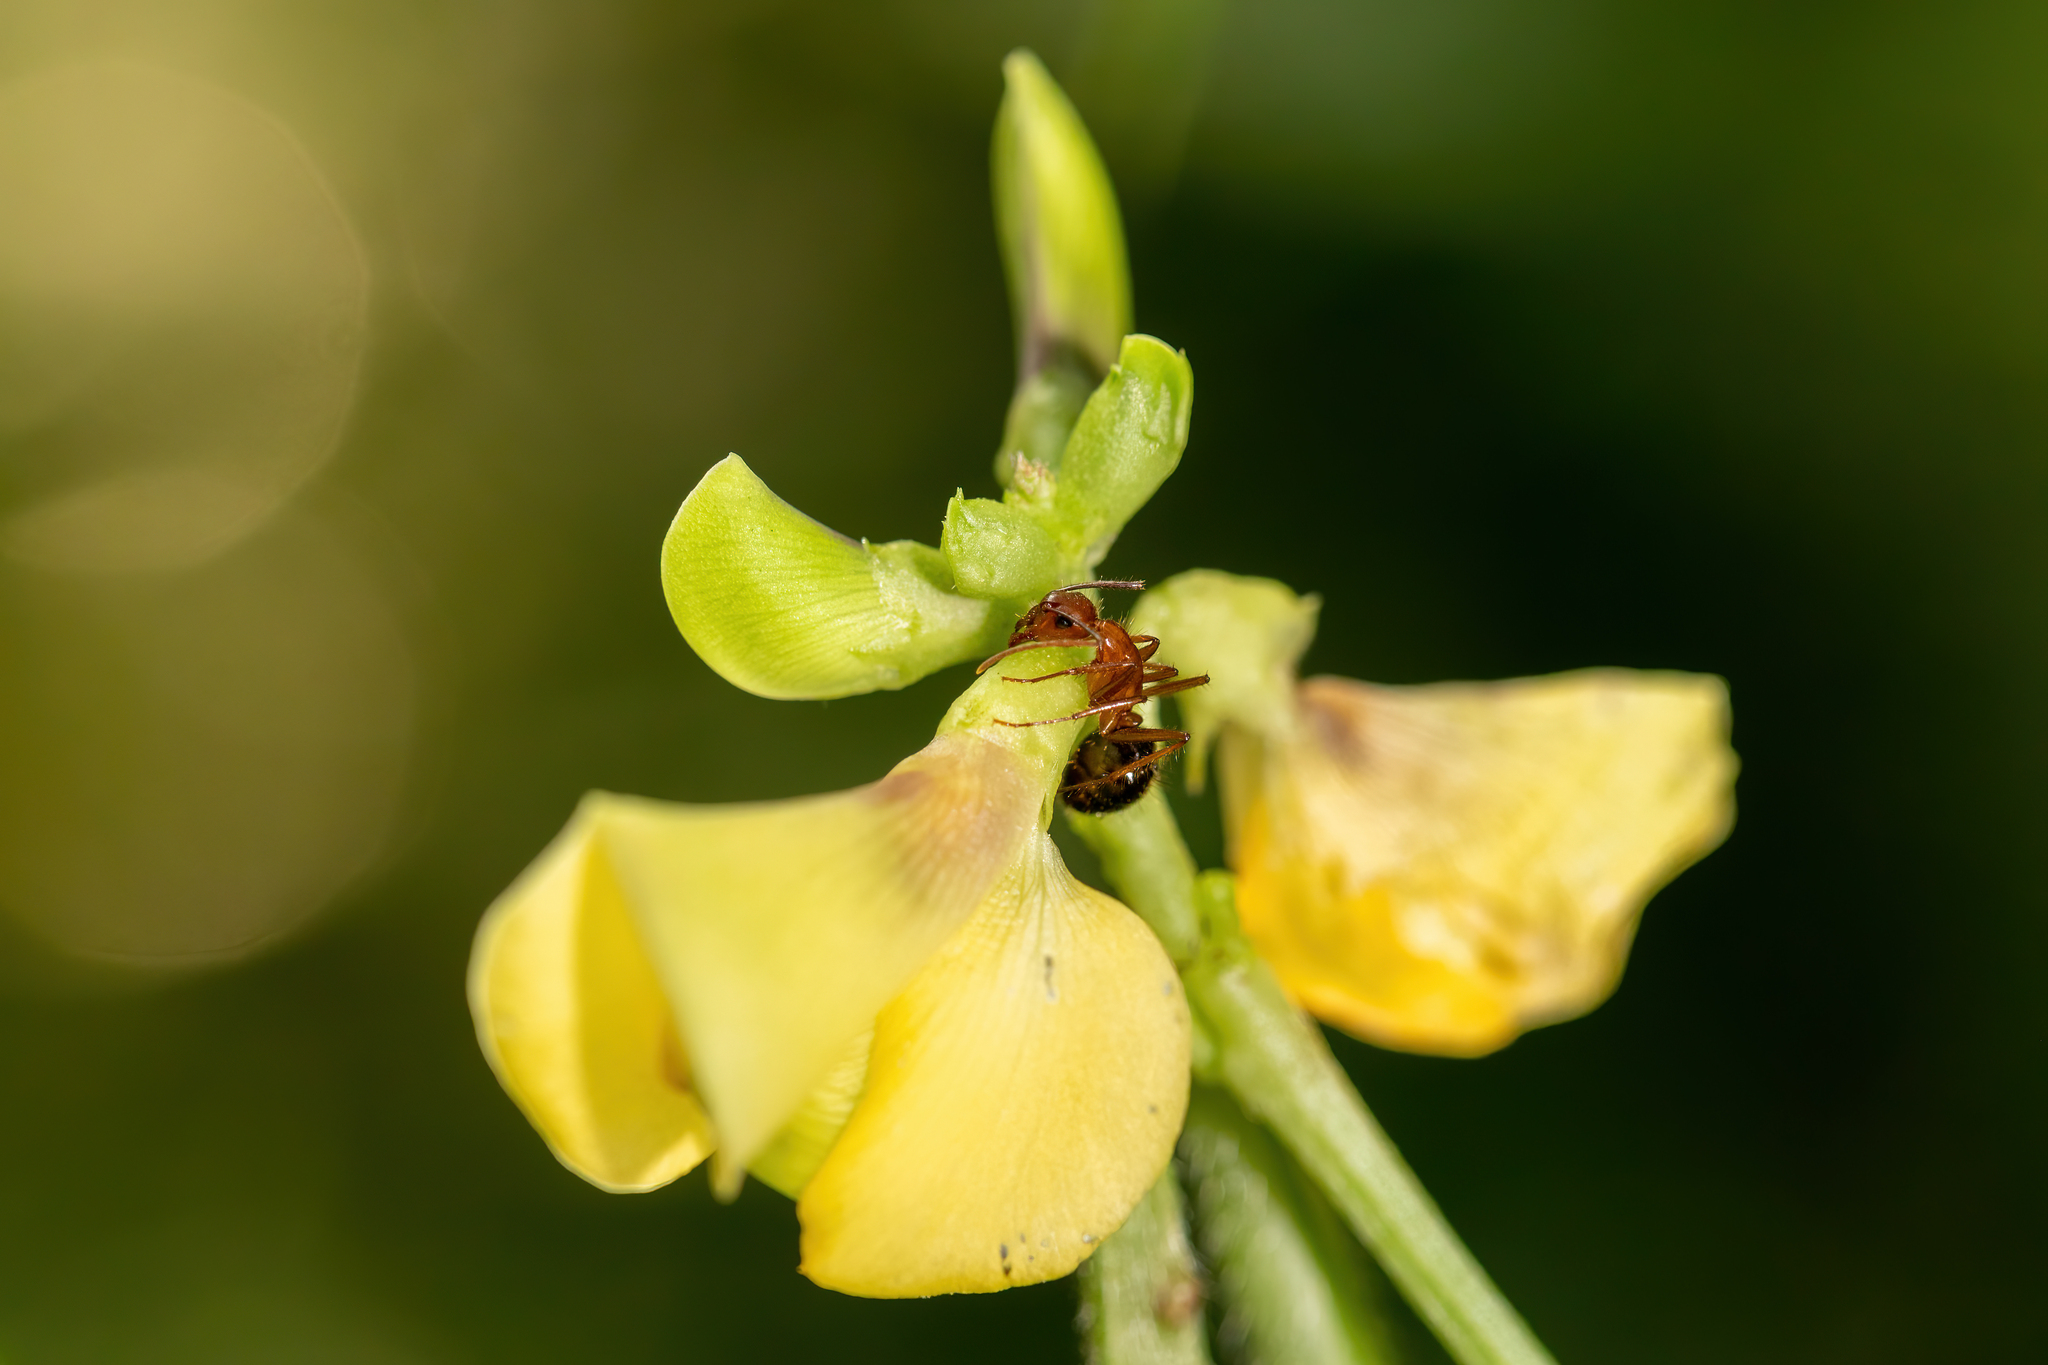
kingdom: Animalia
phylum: Arthropoda
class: Insecta
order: Hymenoptera
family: Formicidae
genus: Camponotus
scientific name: Camponotus floridanus
